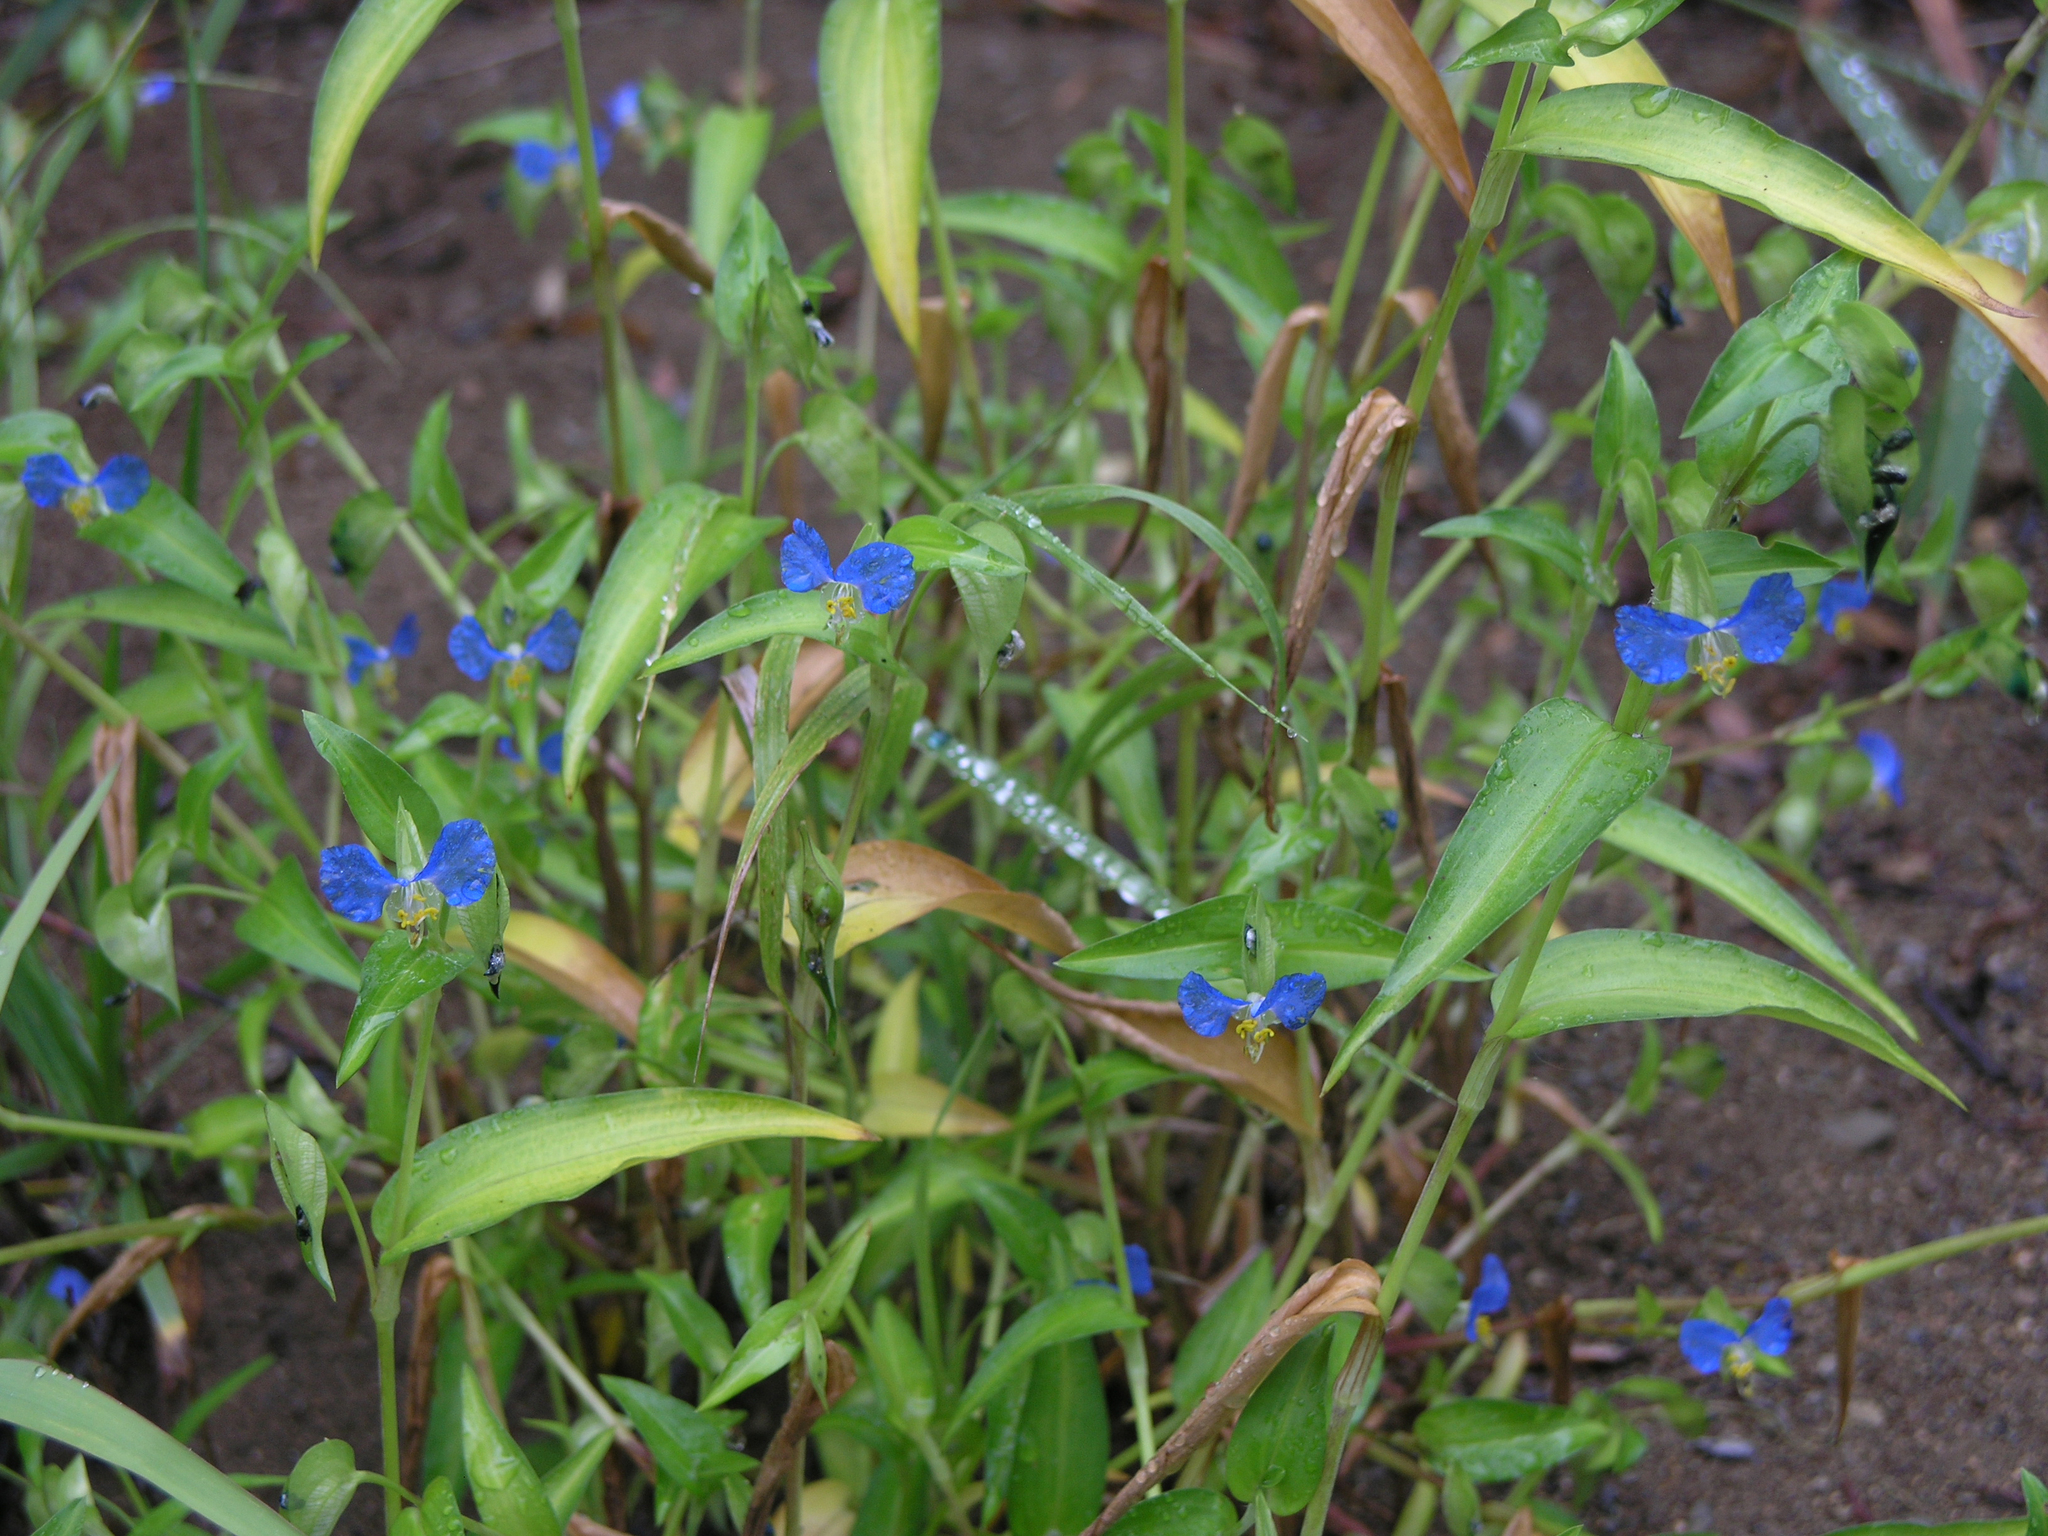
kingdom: Plantae
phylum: Tracheophyta
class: Liliopsida
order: Commelinales
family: Commelinaceae
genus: Commelina
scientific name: Commelina communis
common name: Asiatic dayflower
